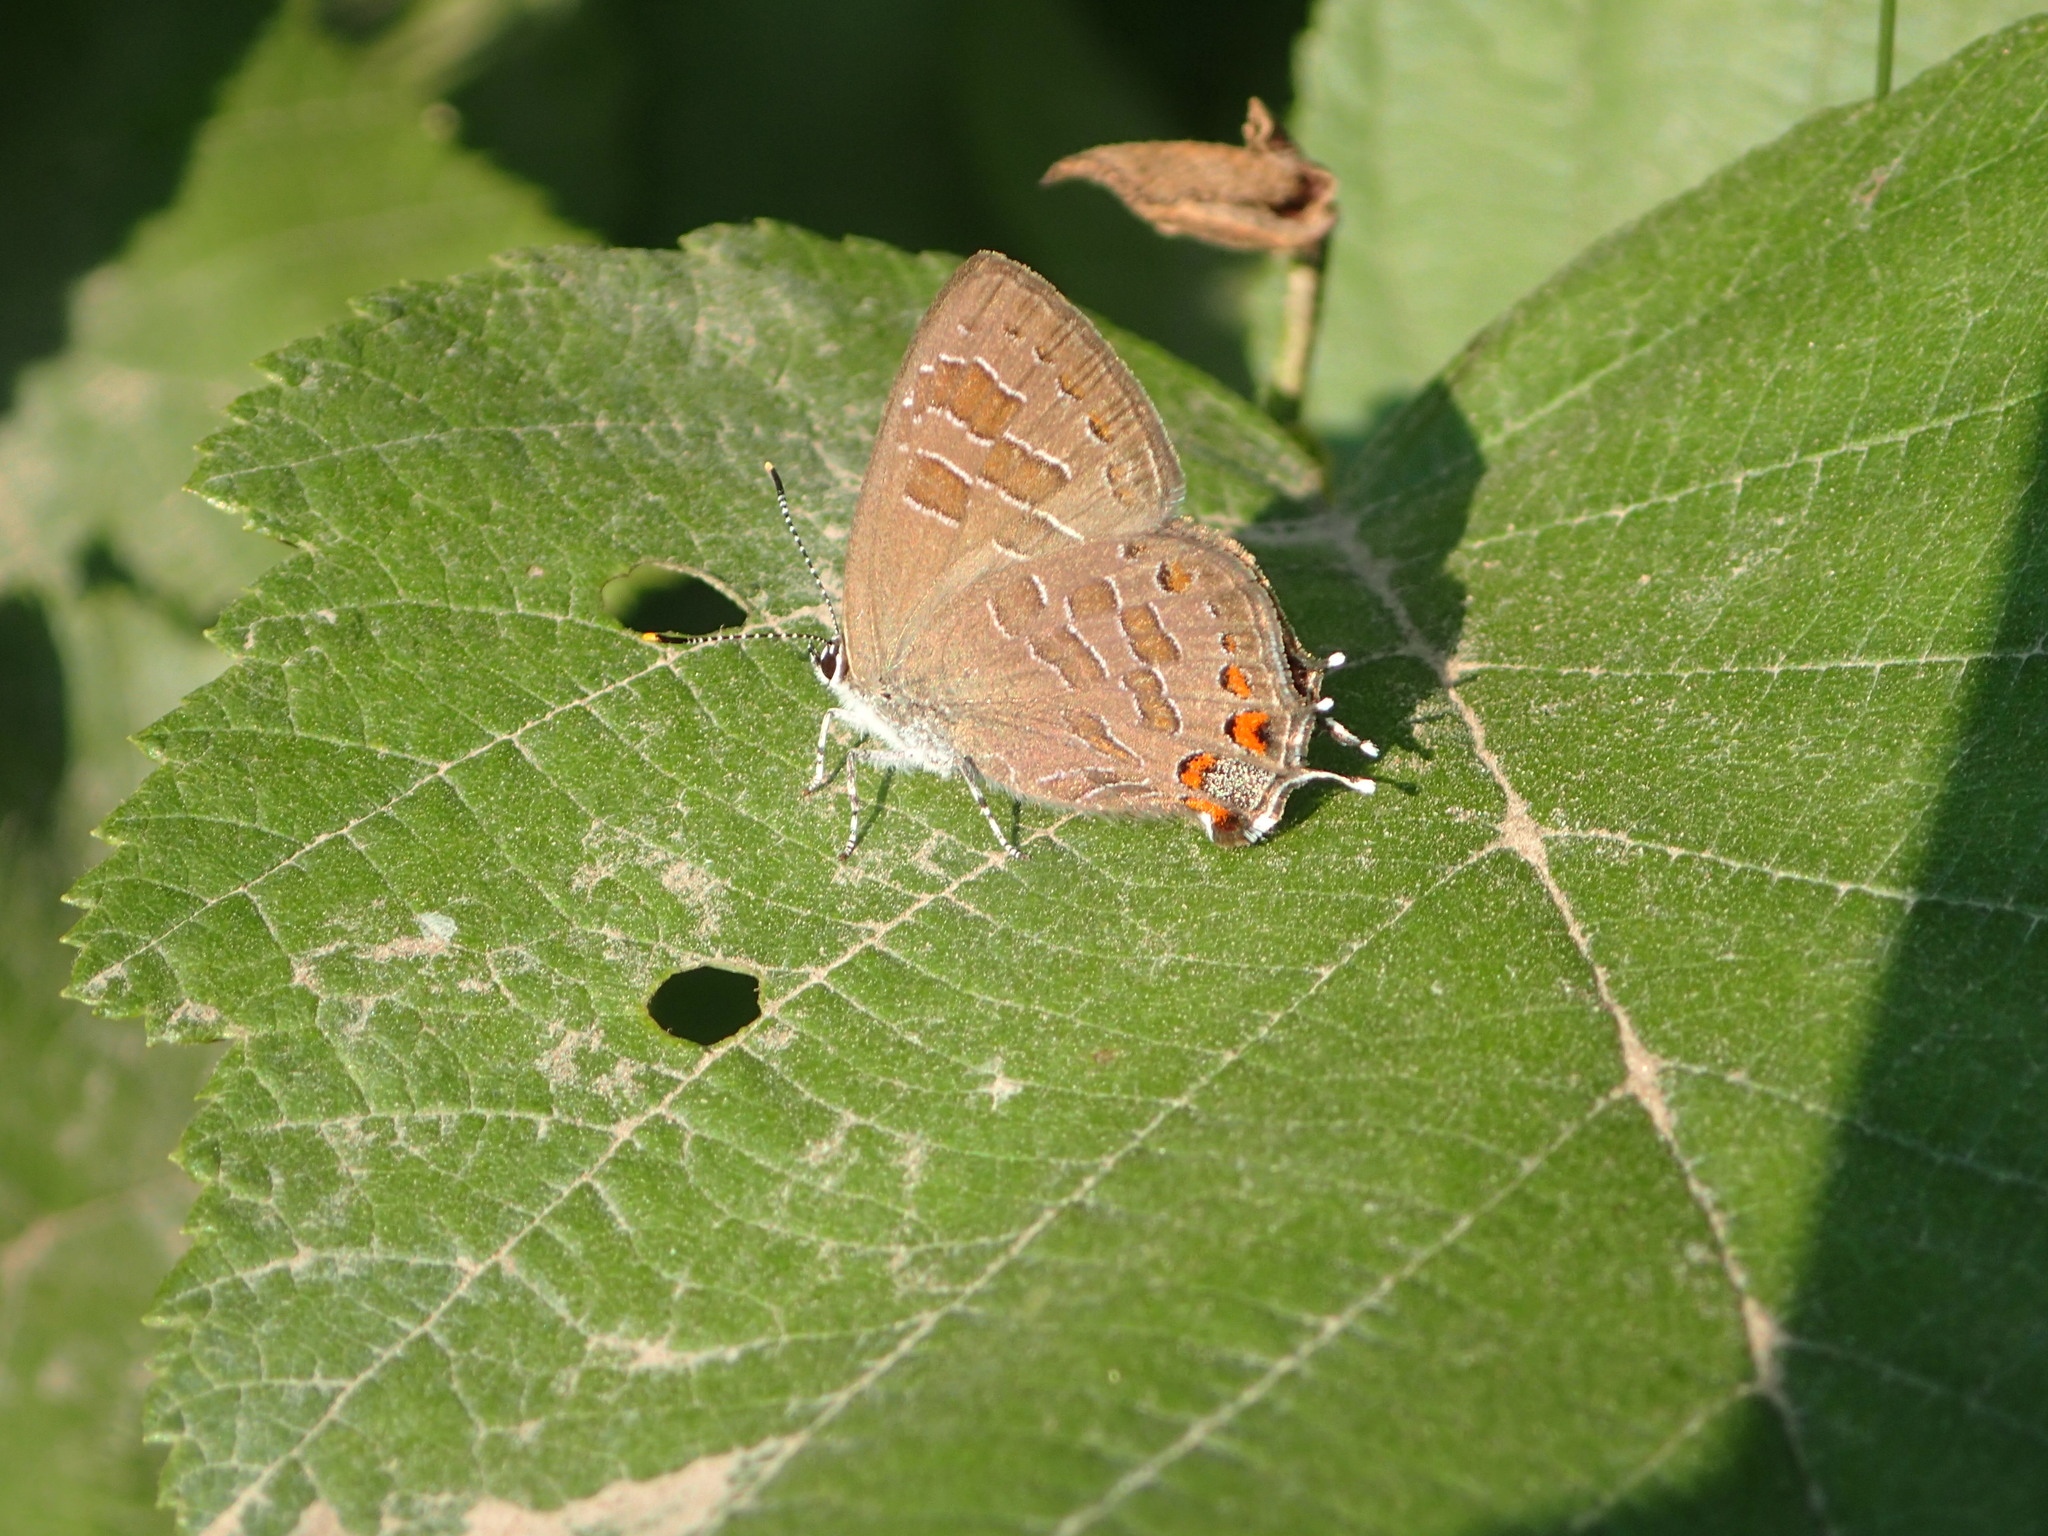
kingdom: Animalia
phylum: Arthropoda
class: Insecta
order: Lepidoptera
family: Lycaenidae
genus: Satyrium
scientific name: Satyrium liparops
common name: Striped hairstreak
